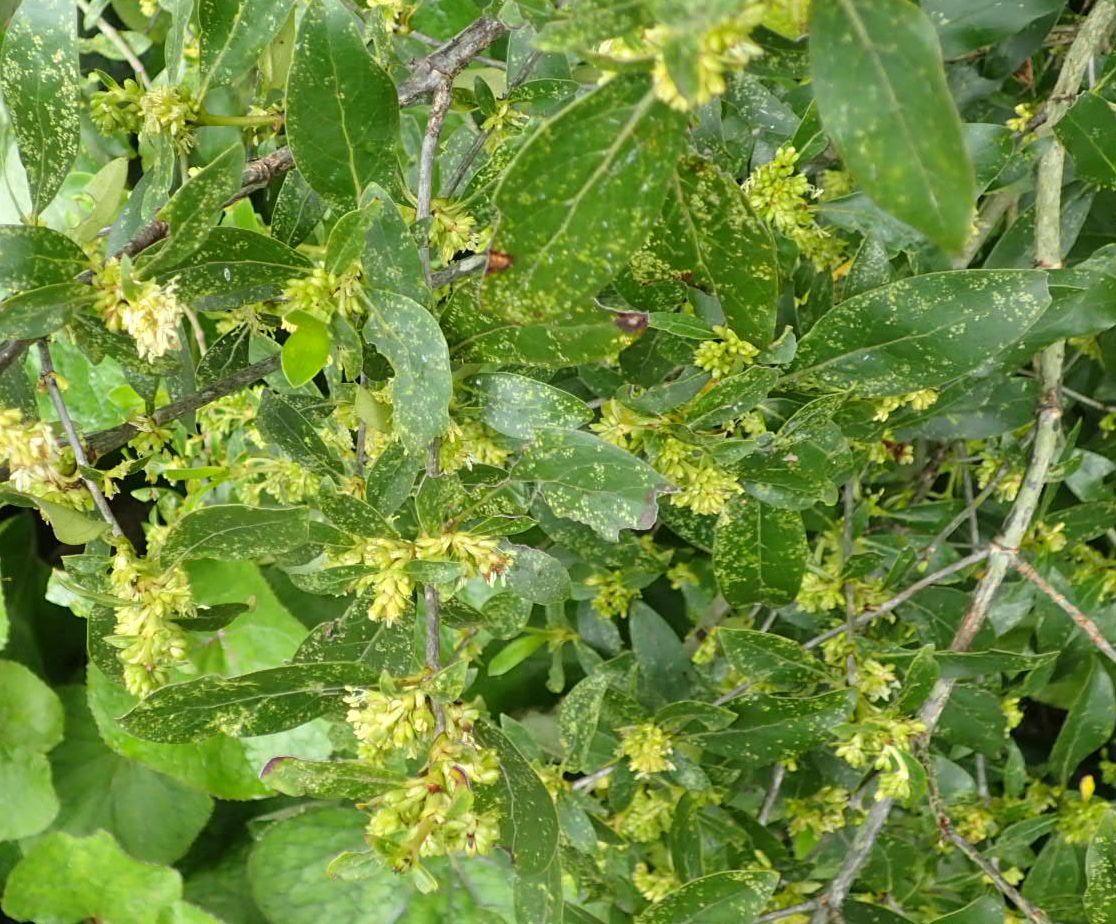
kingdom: Plantae
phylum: Tracheophyta
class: Magnoliopsida
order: Gentianales
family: Rubiaceae
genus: Coprosma
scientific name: Coprosma robusta
